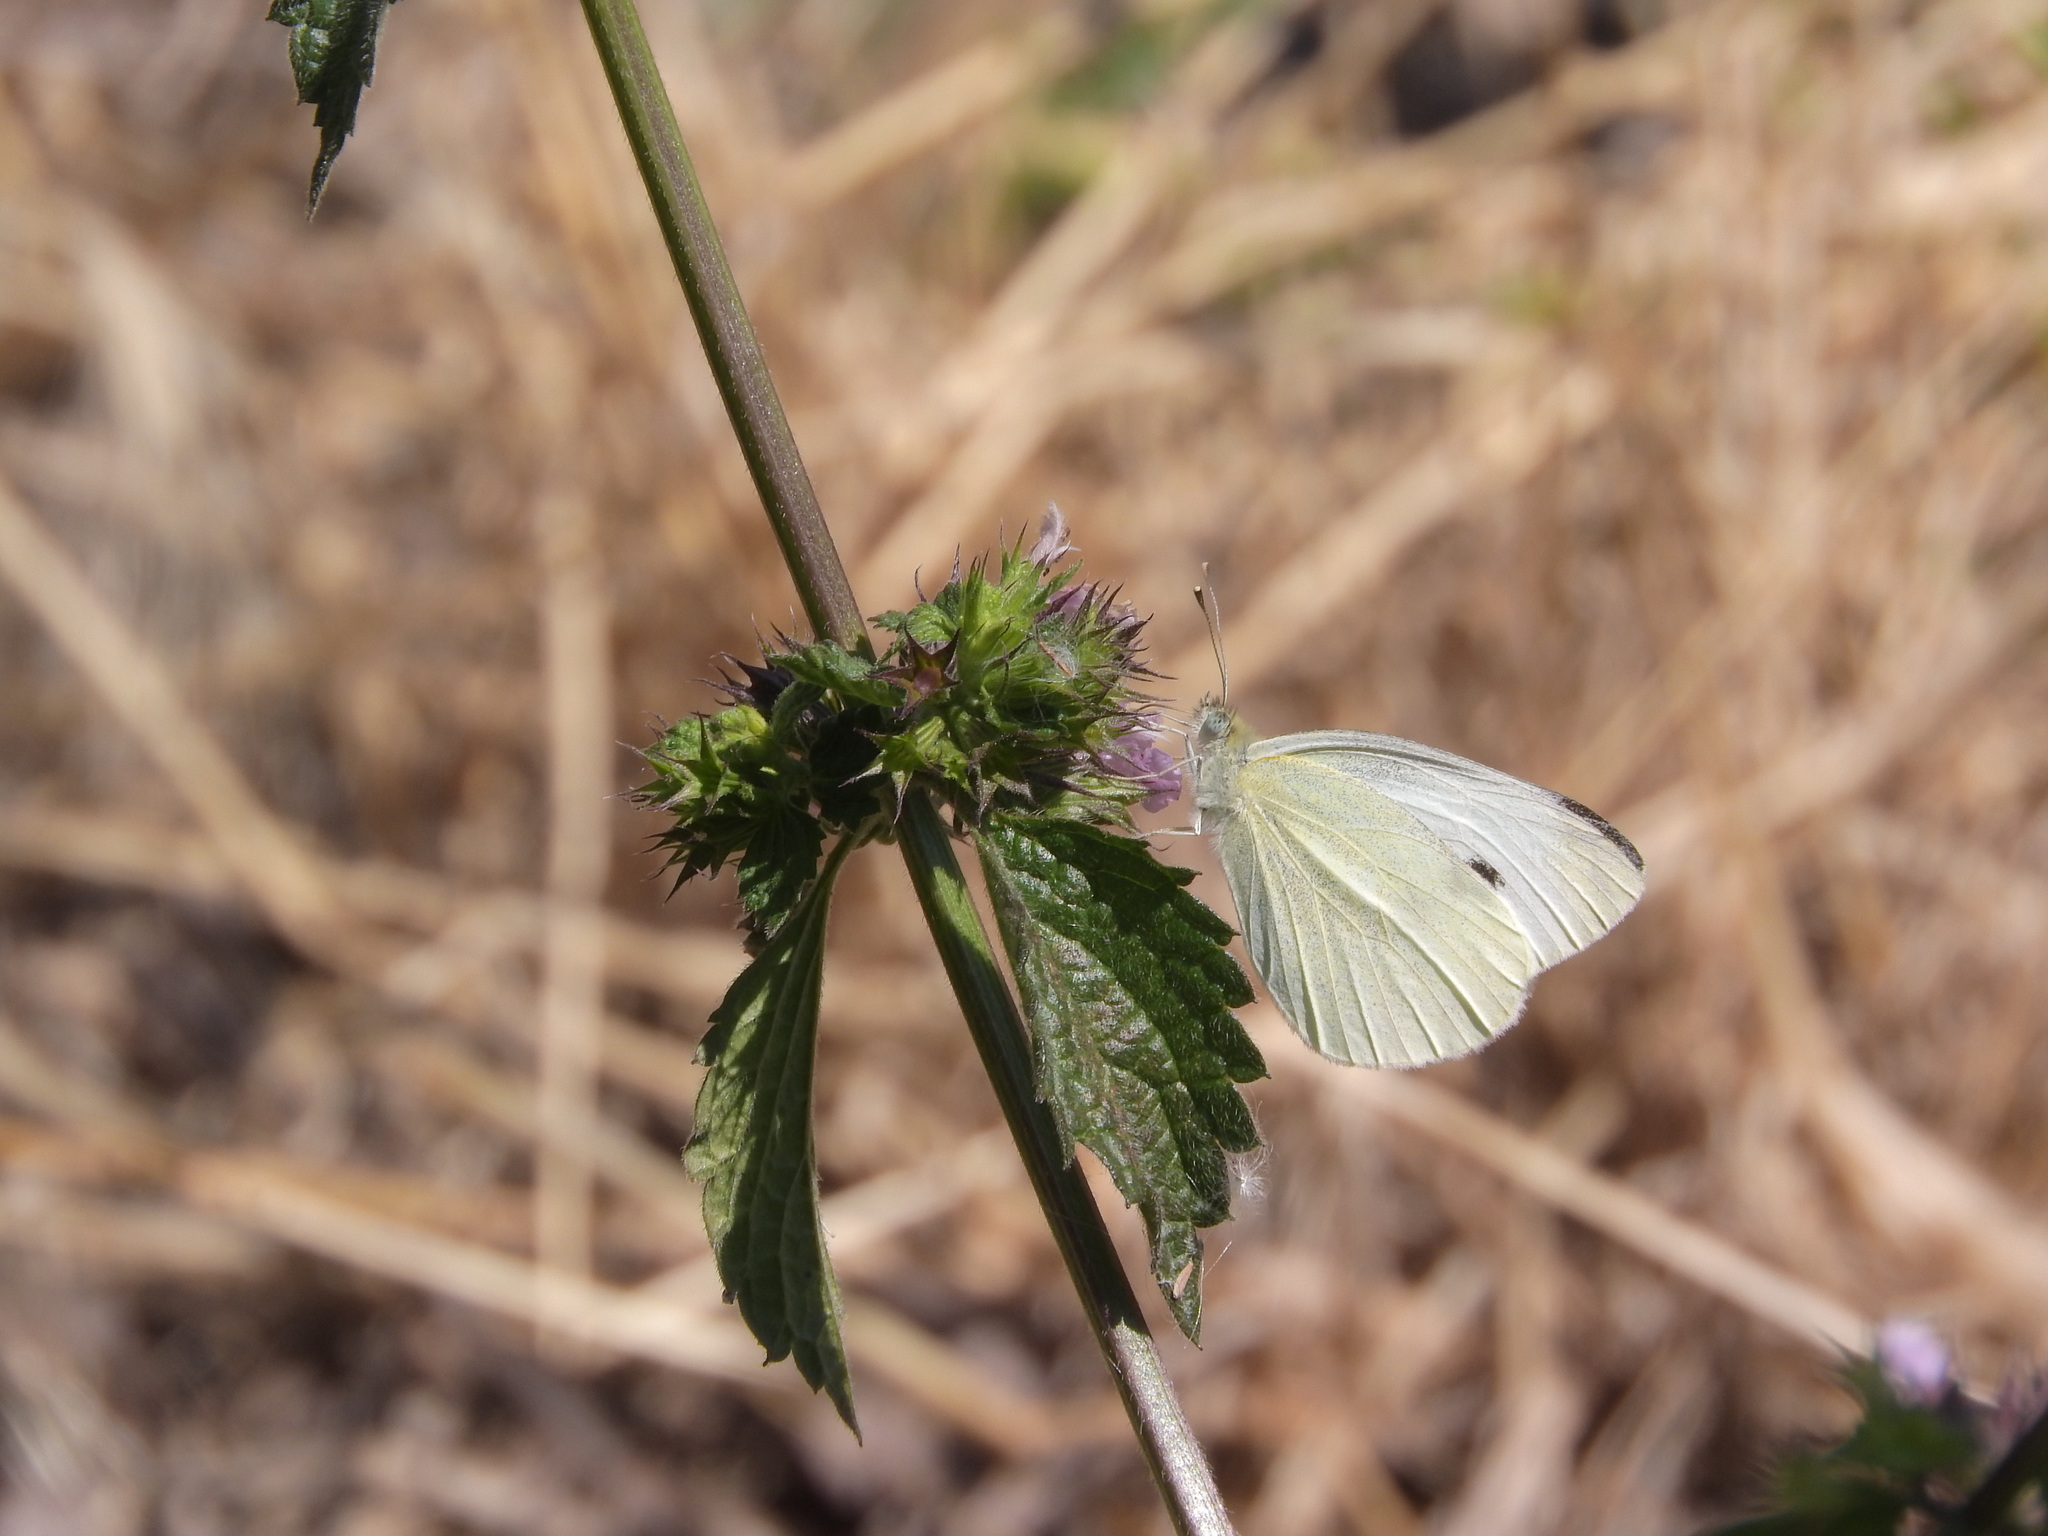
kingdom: Animalia
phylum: Arthropoda
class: Insecta
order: Lepidoptera
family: Pieridae
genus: Pieris
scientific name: Pieris rapae
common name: Small white
